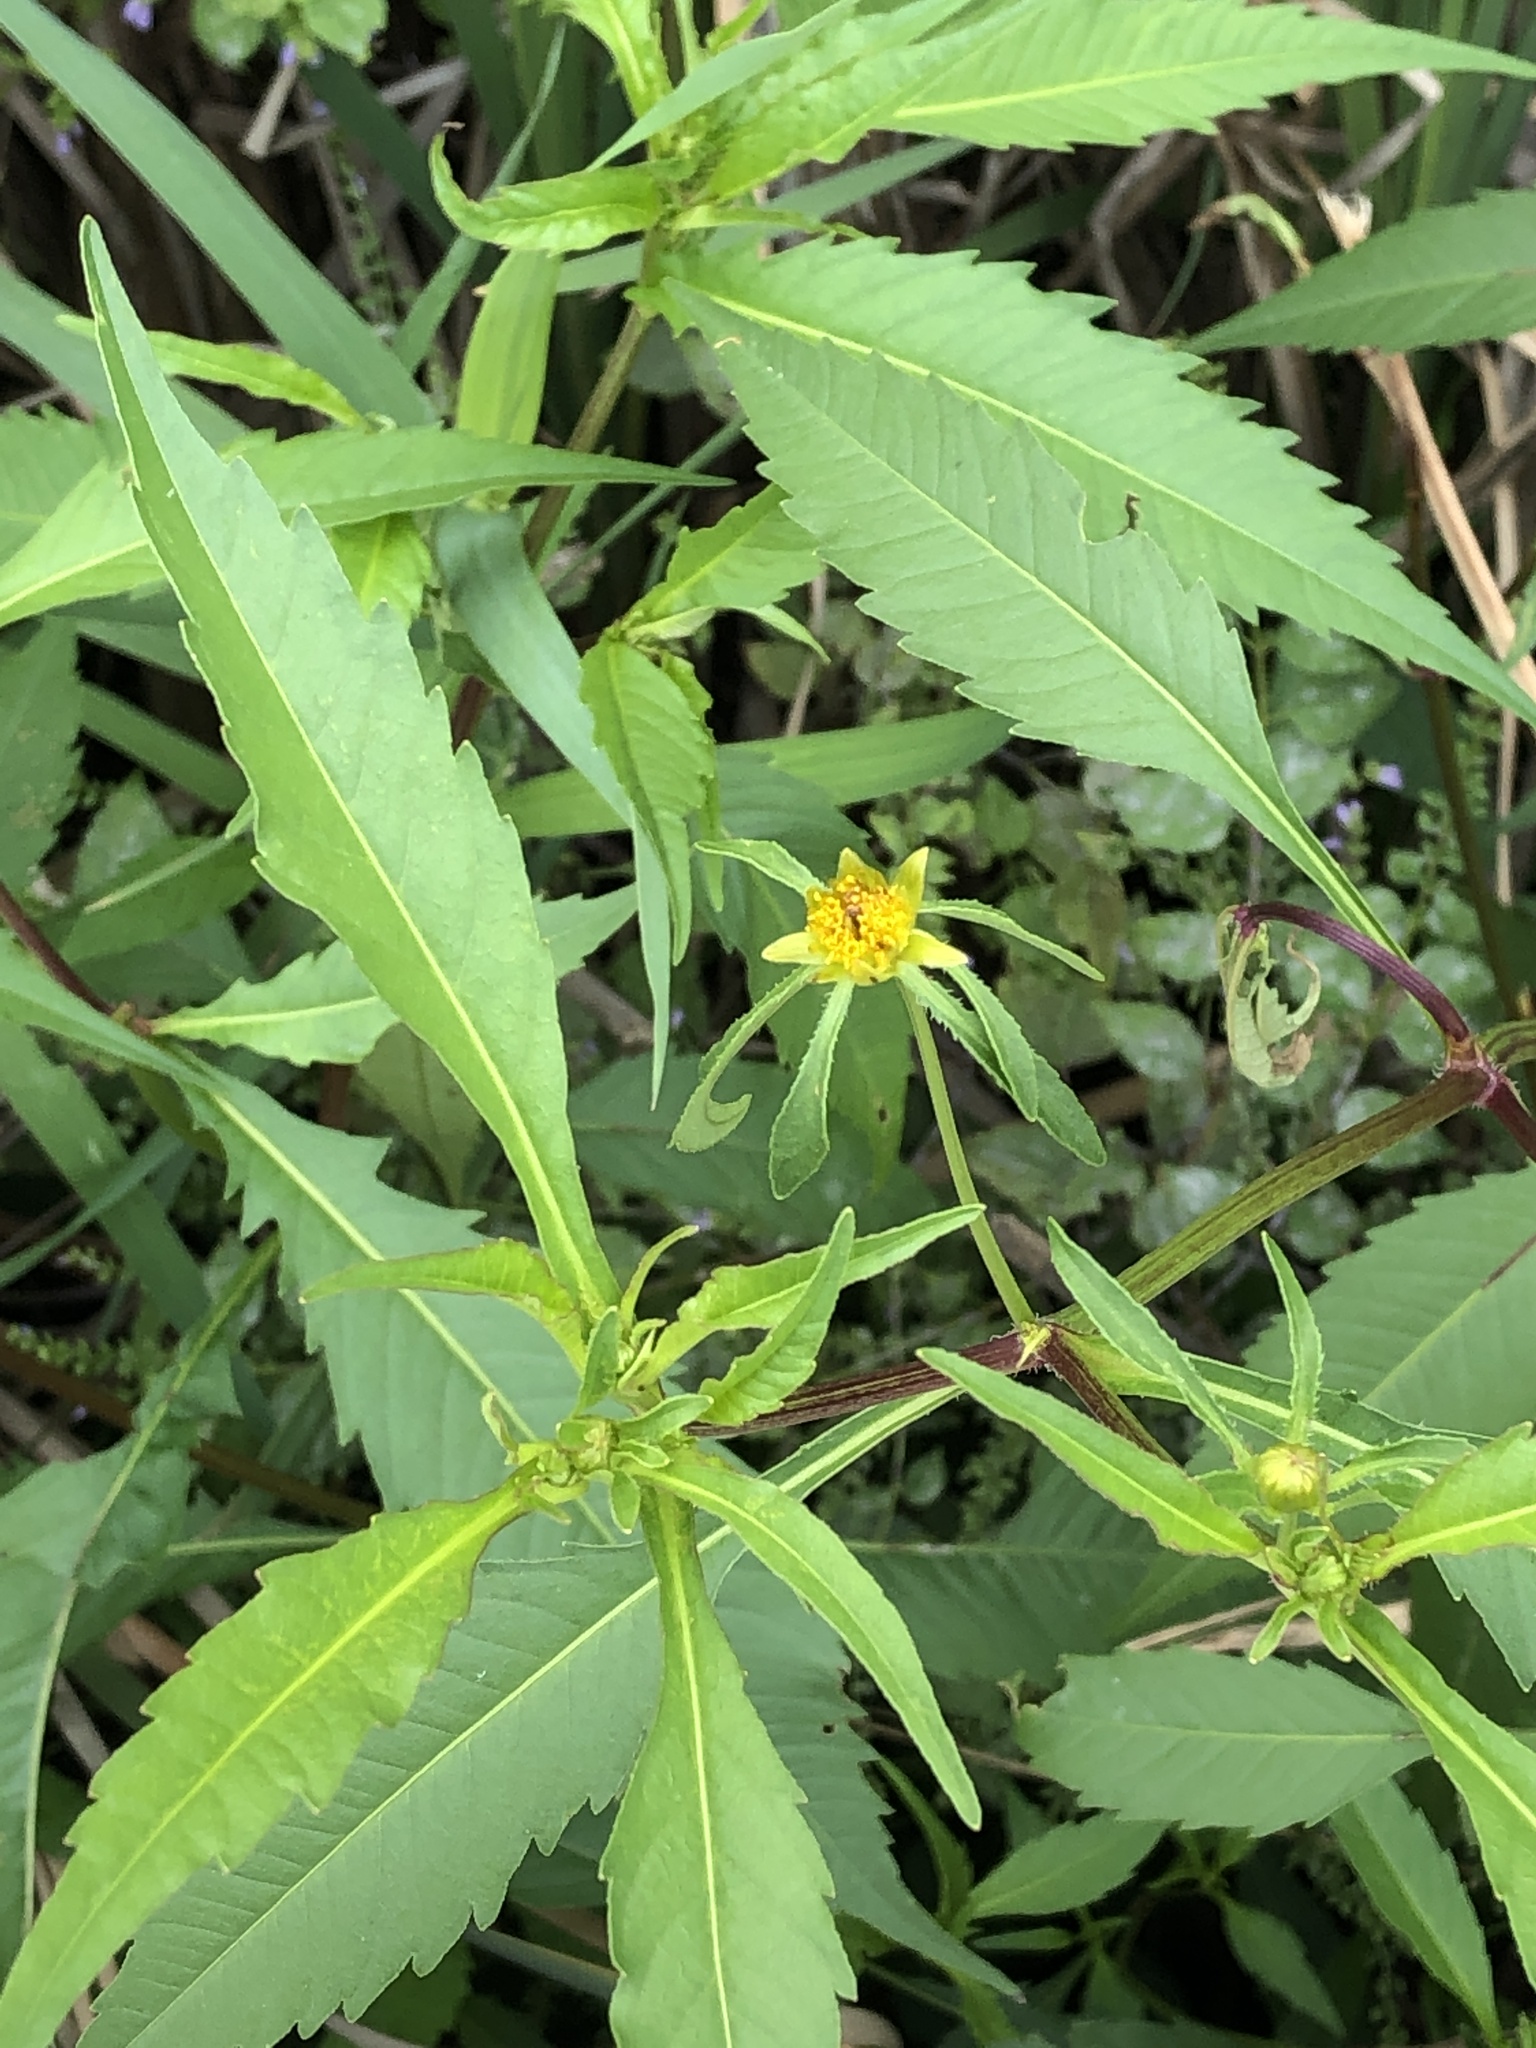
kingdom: Plantae
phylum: Tracheophyta
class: Magnoliopsida
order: Asterales
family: Asteraceae
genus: Bidens
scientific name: Bidens connata
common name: London bur-marigold
